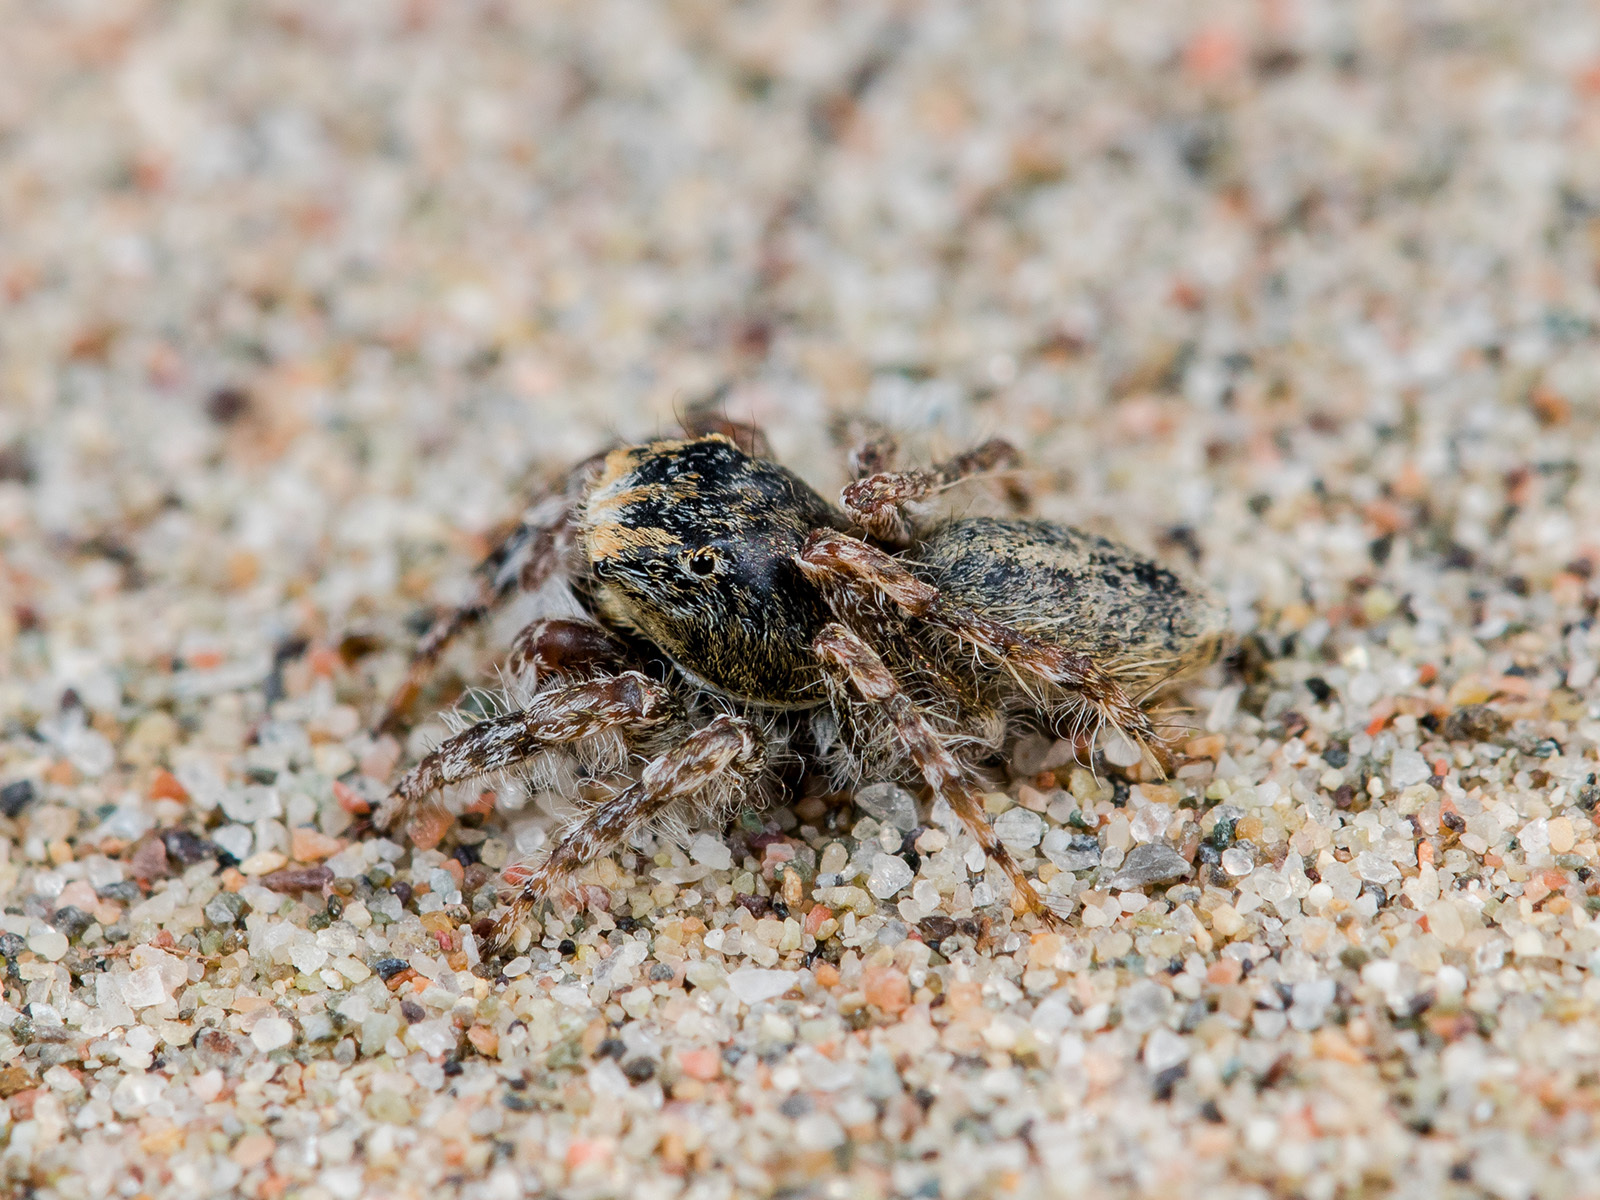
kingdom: Animalia
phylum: Arthropoda
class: Arachnida
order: Araneae
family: Salticidae
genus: Yllenus
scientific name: Yllenus uiguricus
